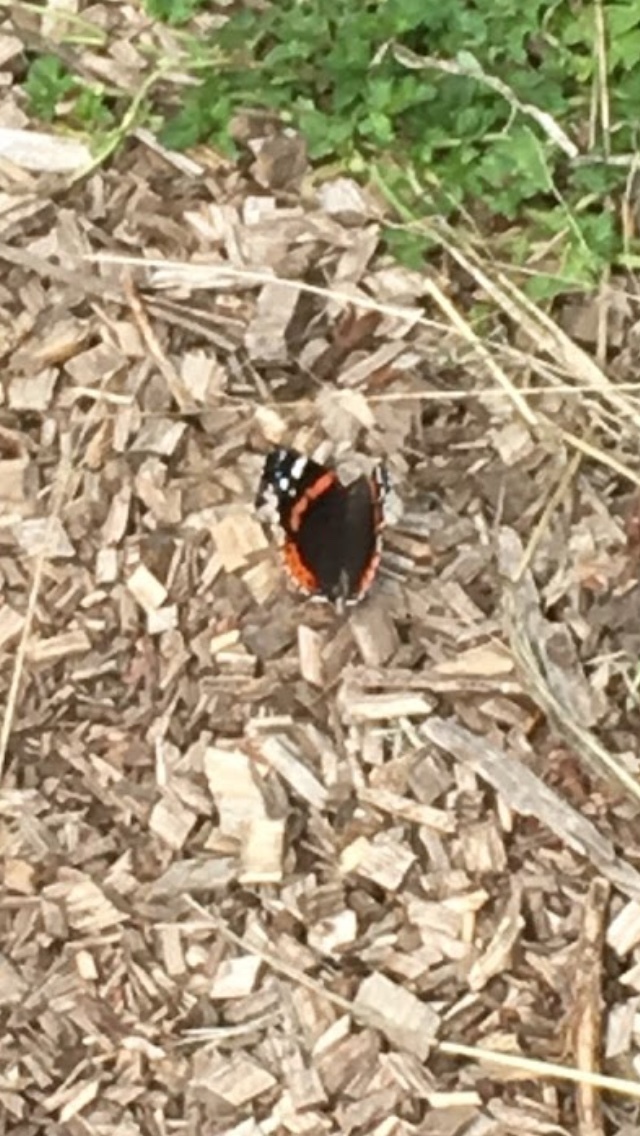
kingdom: Animalia
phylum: Arthropoda
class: Insecta
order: Lepidoptera
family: Nymphalidae
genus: Vanessa
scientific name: Vanessa atalanta
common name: Red admiral
